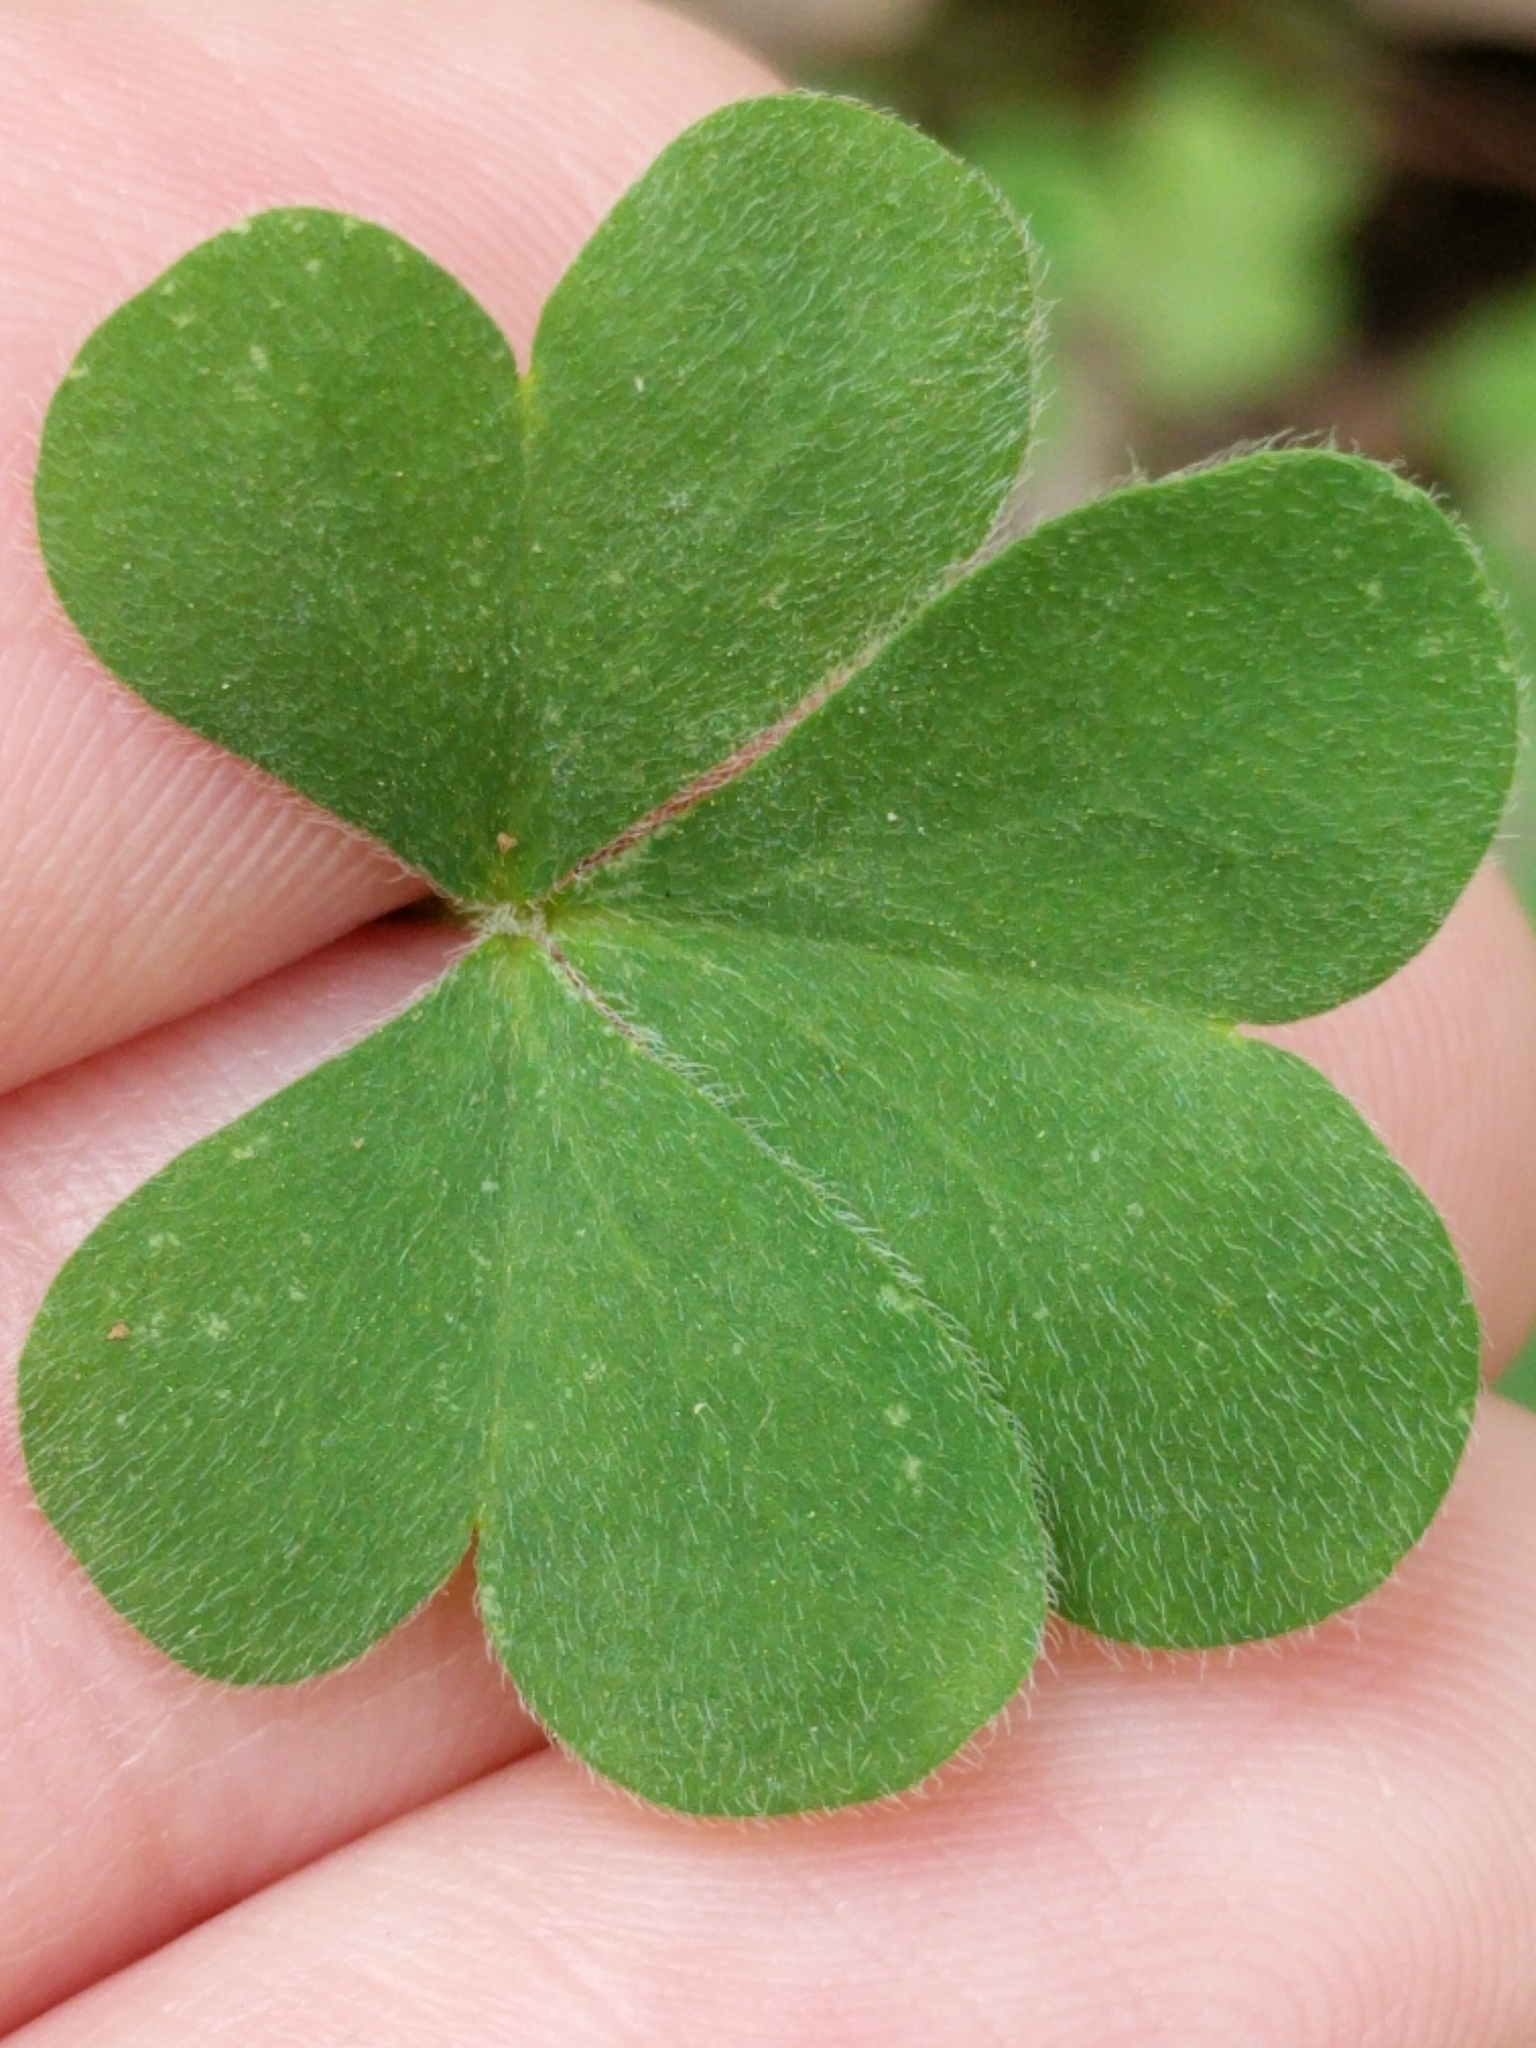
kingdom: Plantae
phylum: Tracheophyta
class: Magnoliopsida
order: Oxalidales
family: Oxalidaceae
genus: Oxalis
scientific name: Oxalis dillenii
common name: Sussex yellow-sorrel
